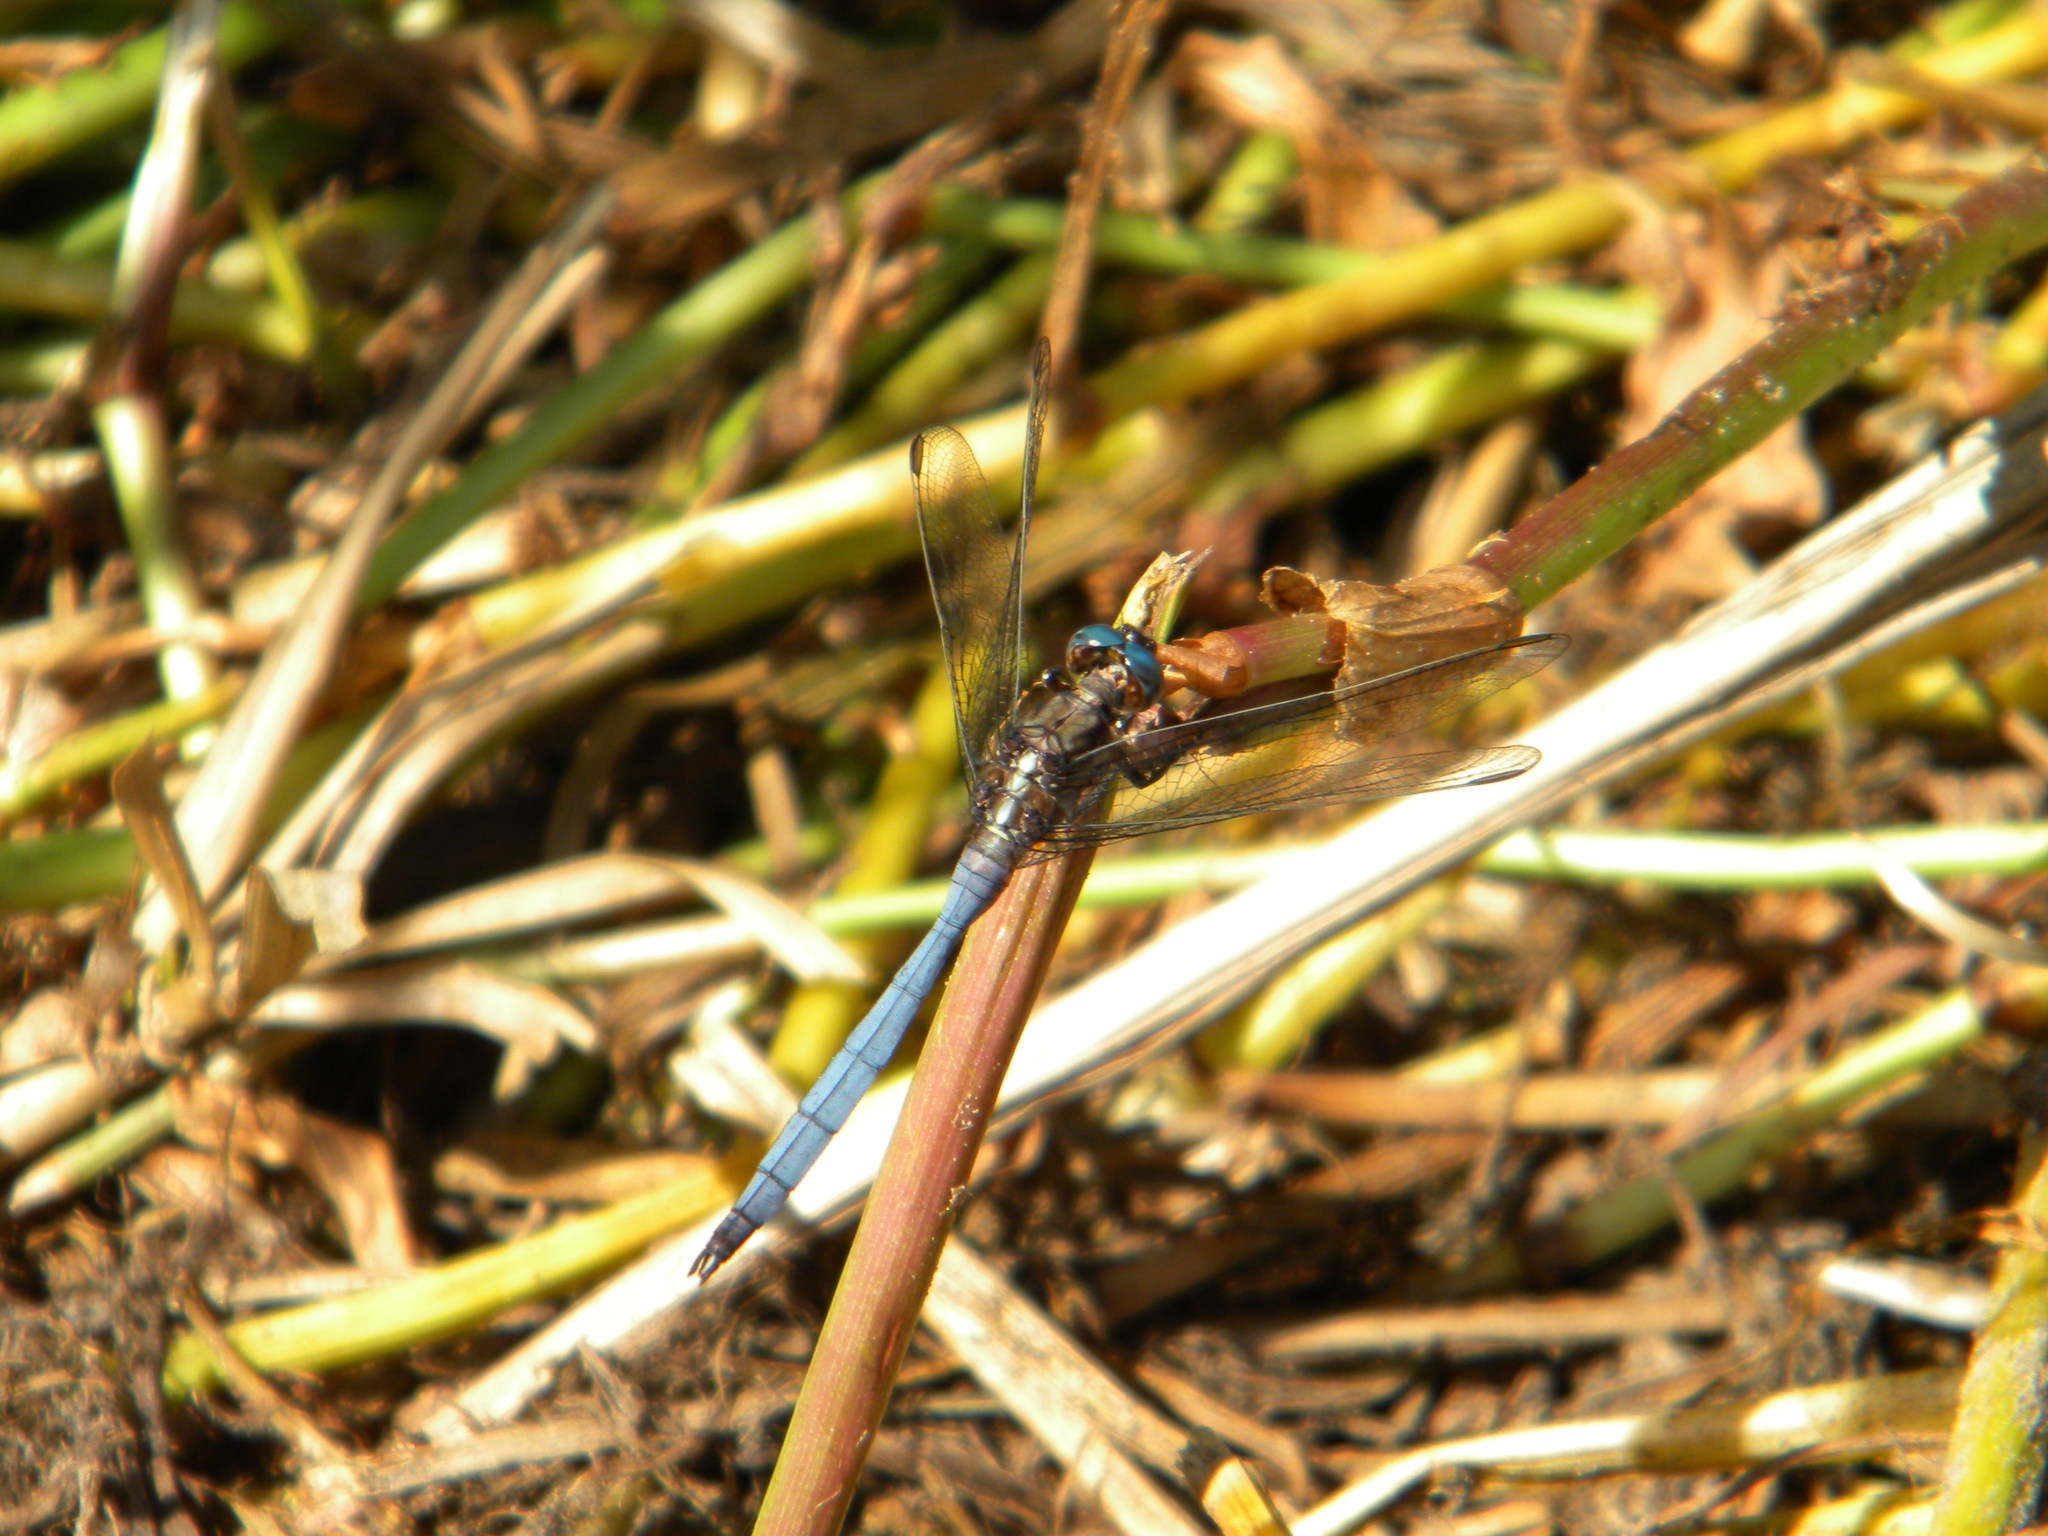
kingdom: Animalia
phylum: Arthropoda
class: Insecta
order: Odonata
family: Libellulidae
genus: Orthetrum
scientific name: Orthetrum julia
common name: Julia skimmer
